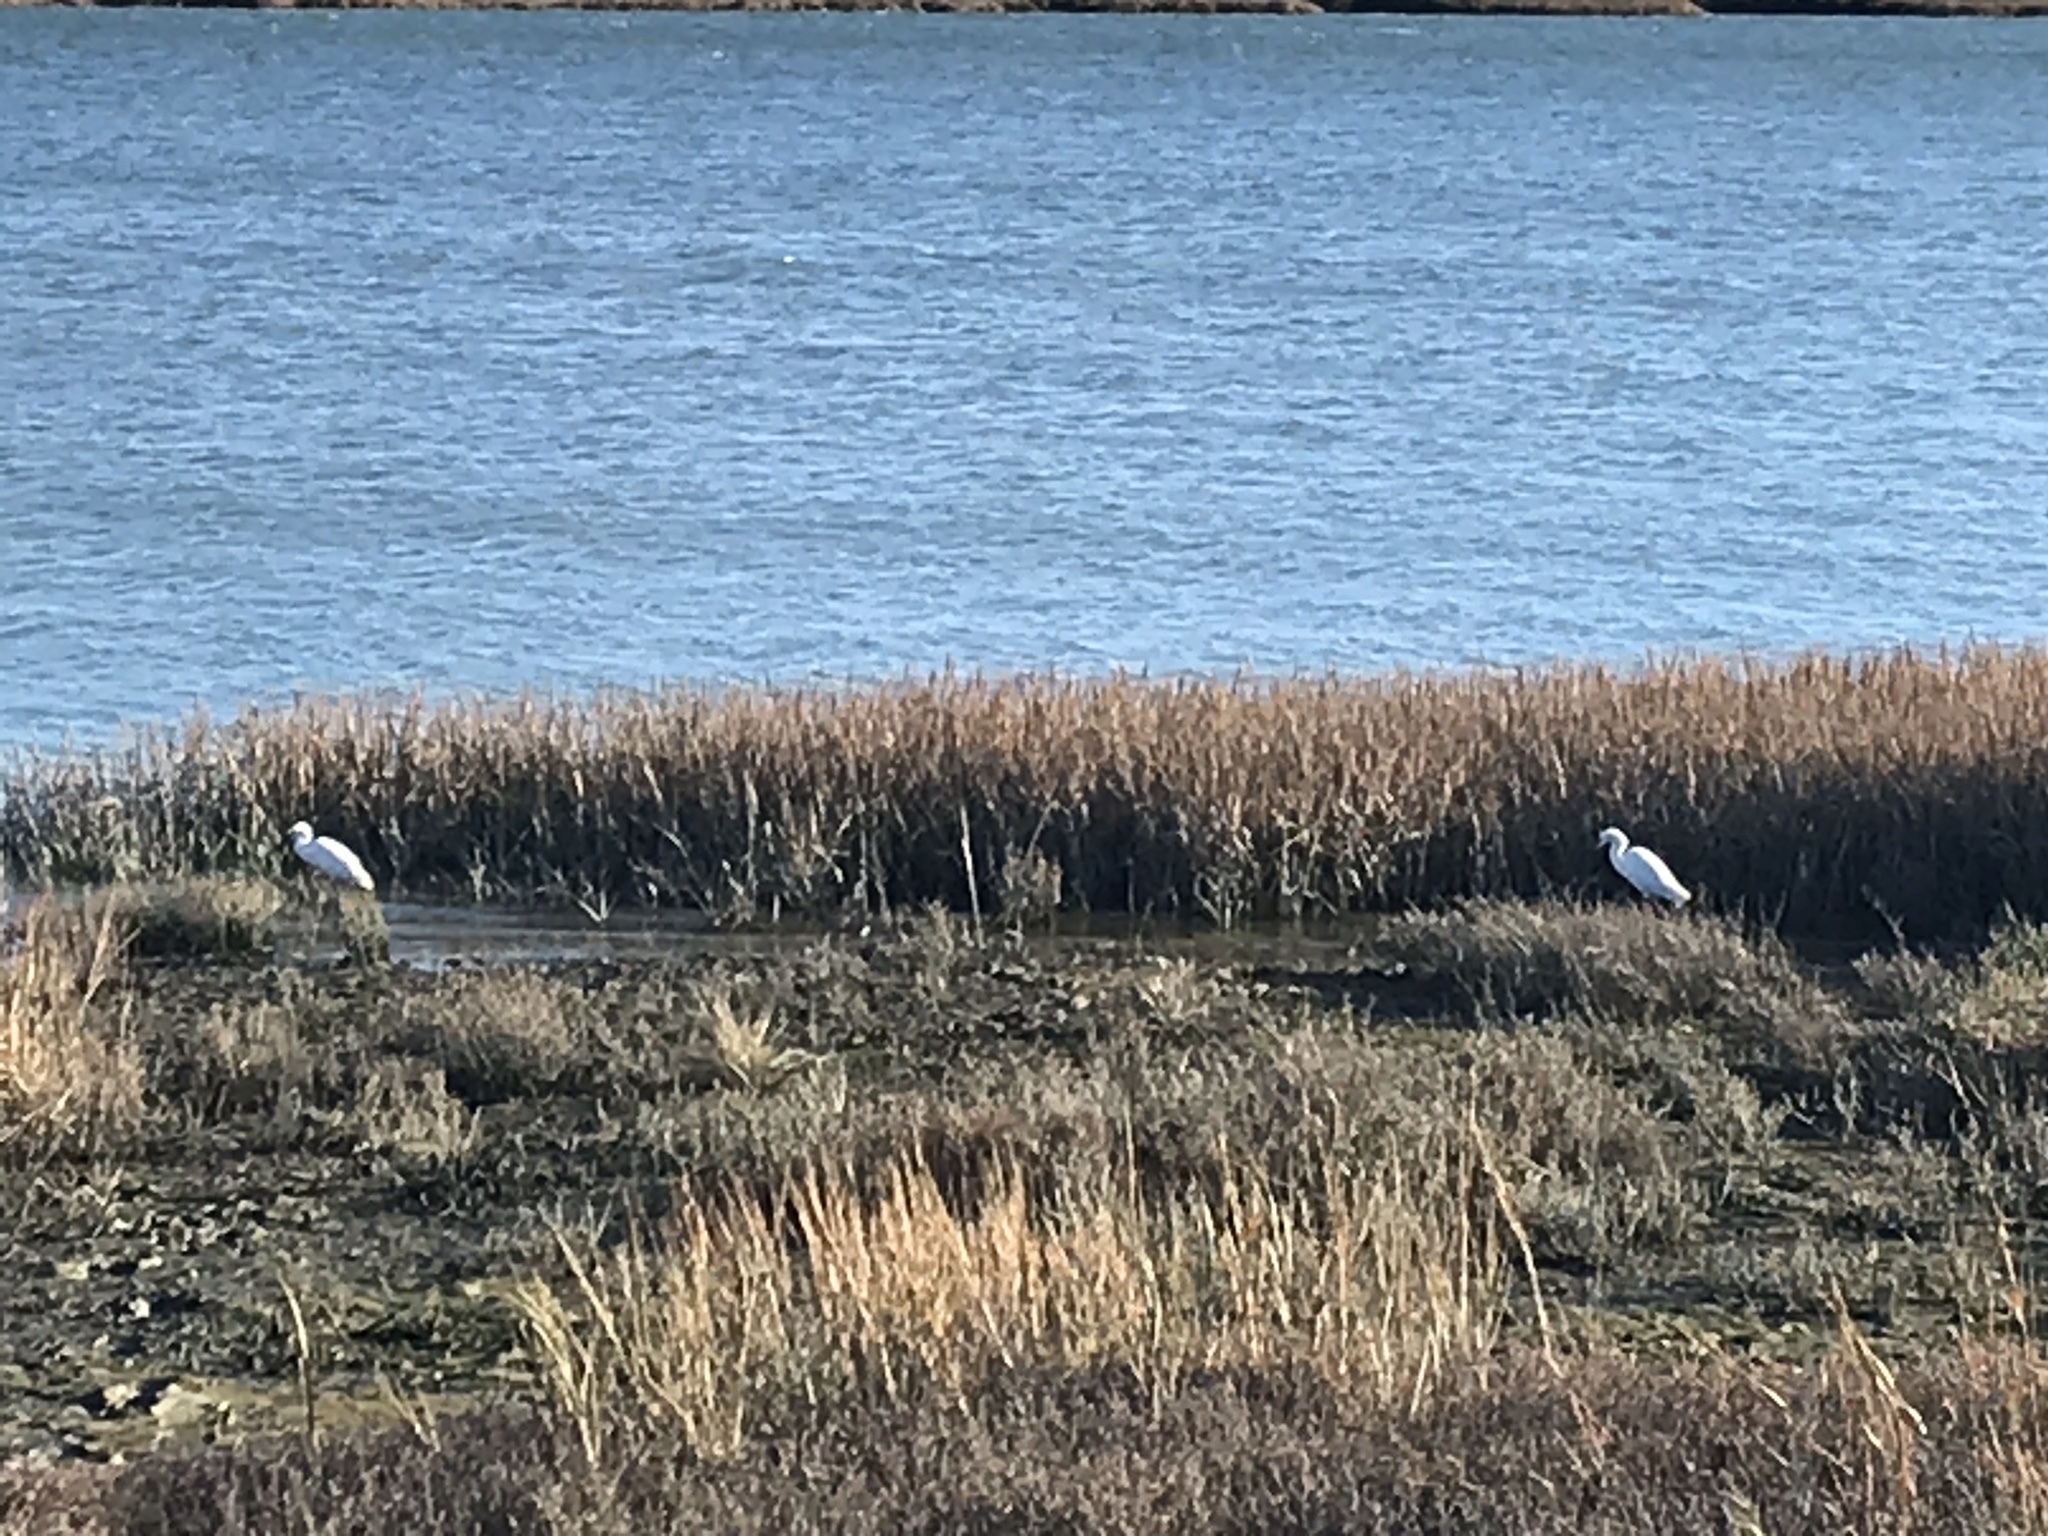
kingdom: Animalia
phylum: Chordata
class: Aves
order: Pelecaniformes
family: Ardeidae
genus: Egretta
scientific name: Egretta thula
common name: Snowy egret
